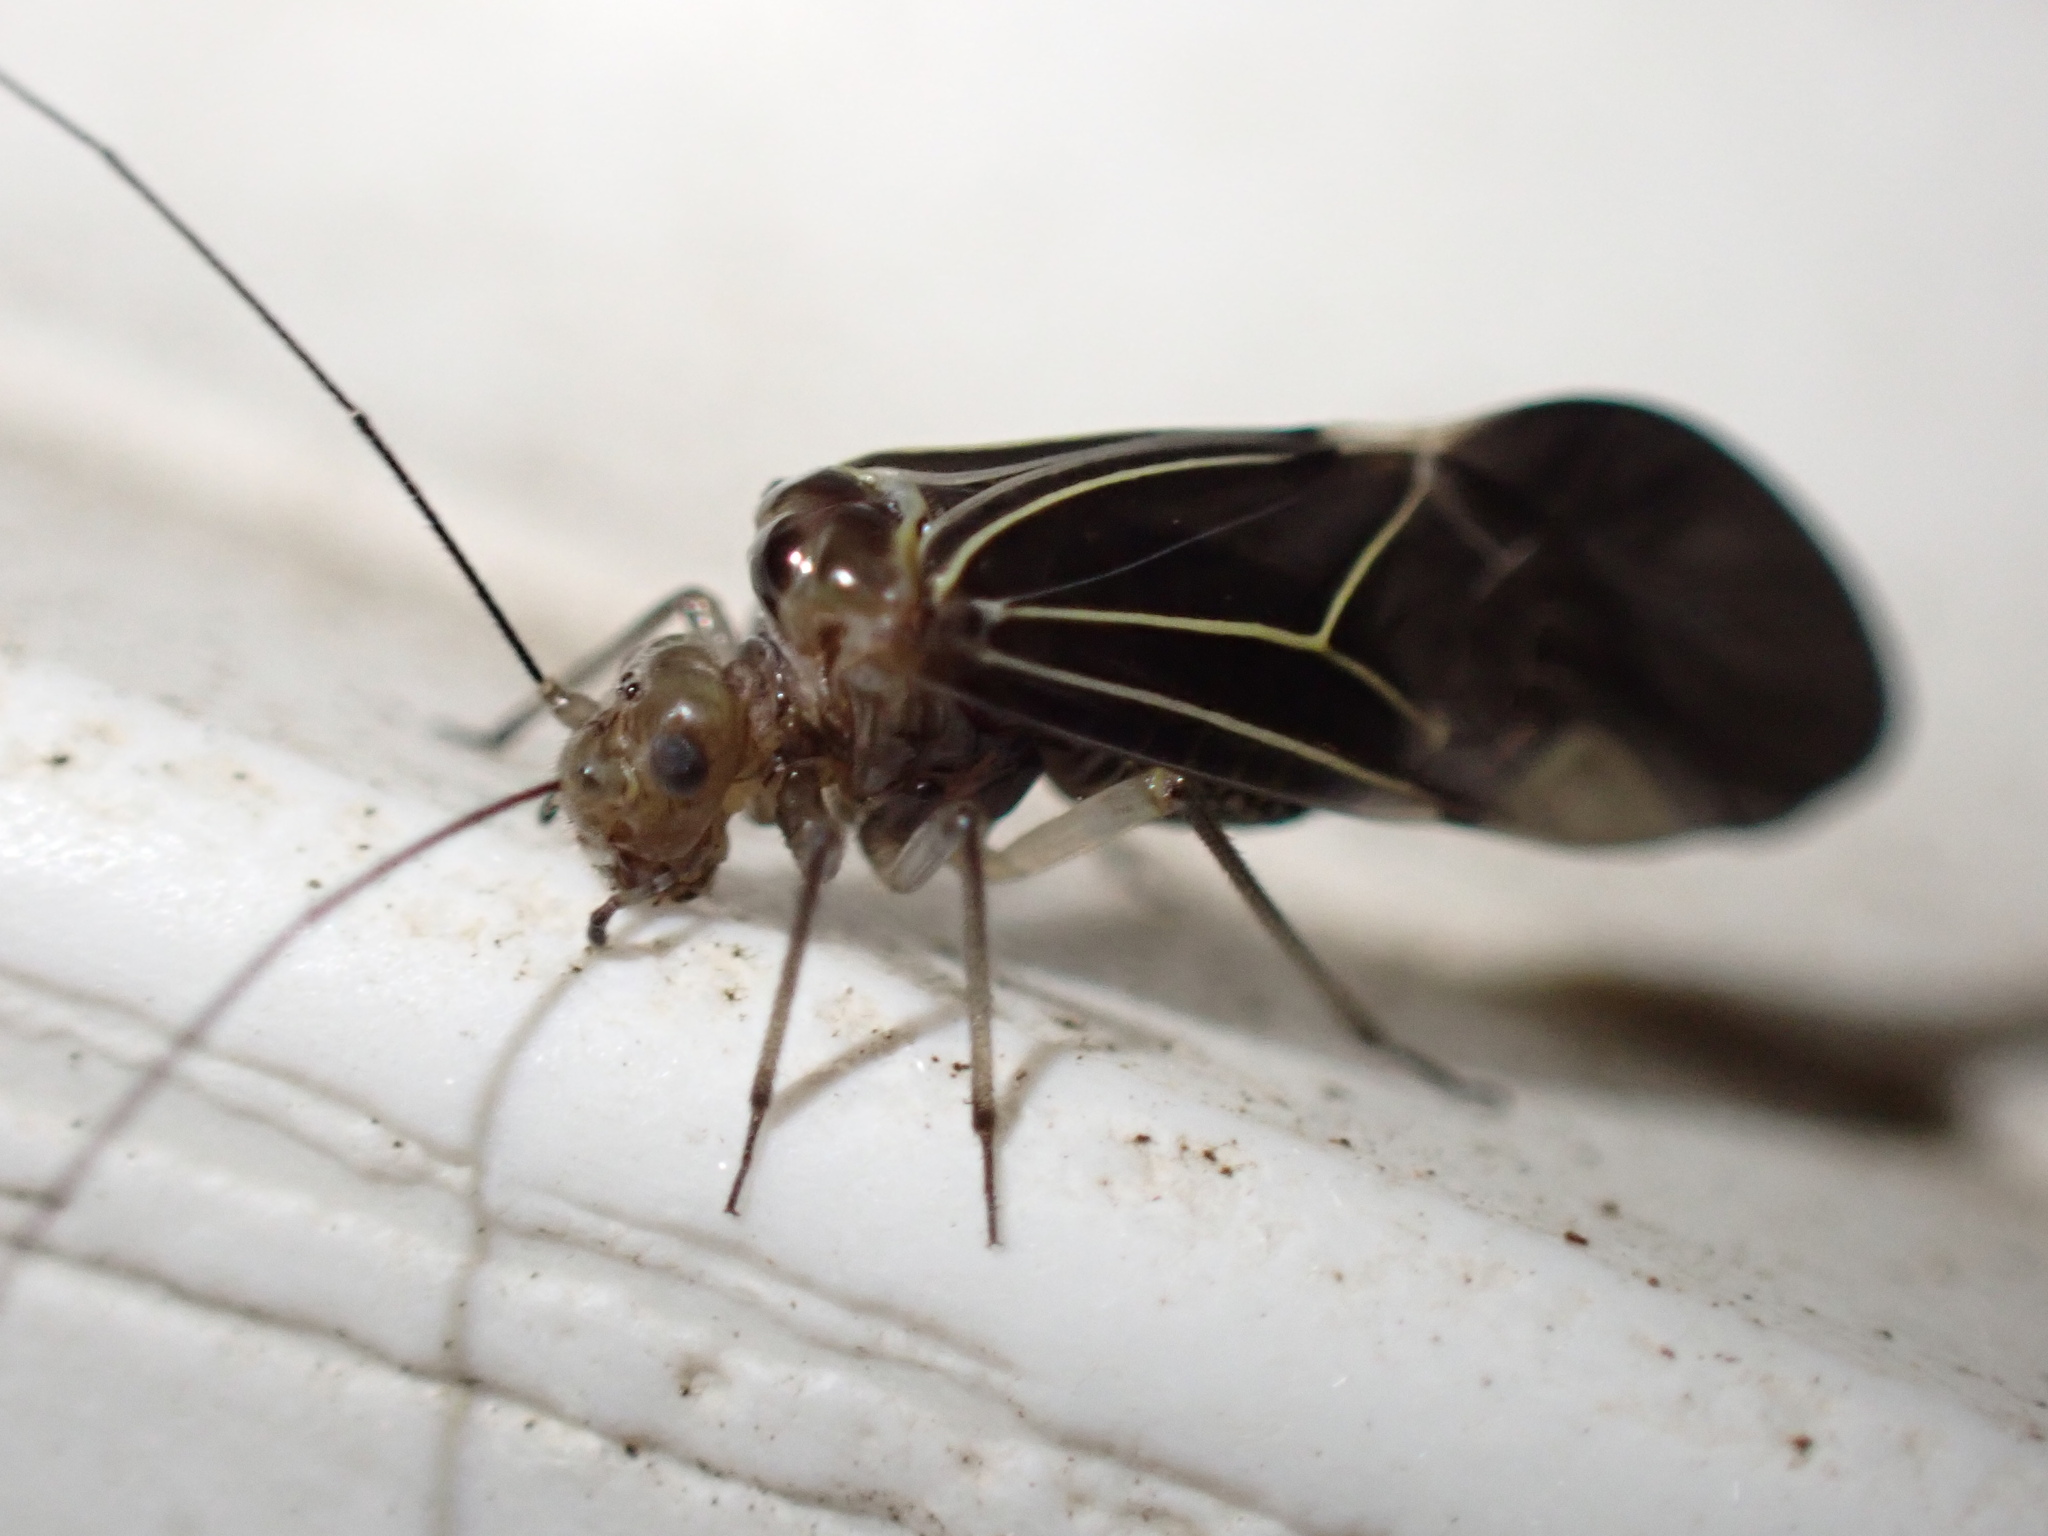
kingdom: Animalia
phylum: Arthropoda
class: Insecta
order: Psocodea
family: Psocidae
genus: Cerastipsocus
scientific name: Cerastipsocus venosus
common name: Tree cattle
